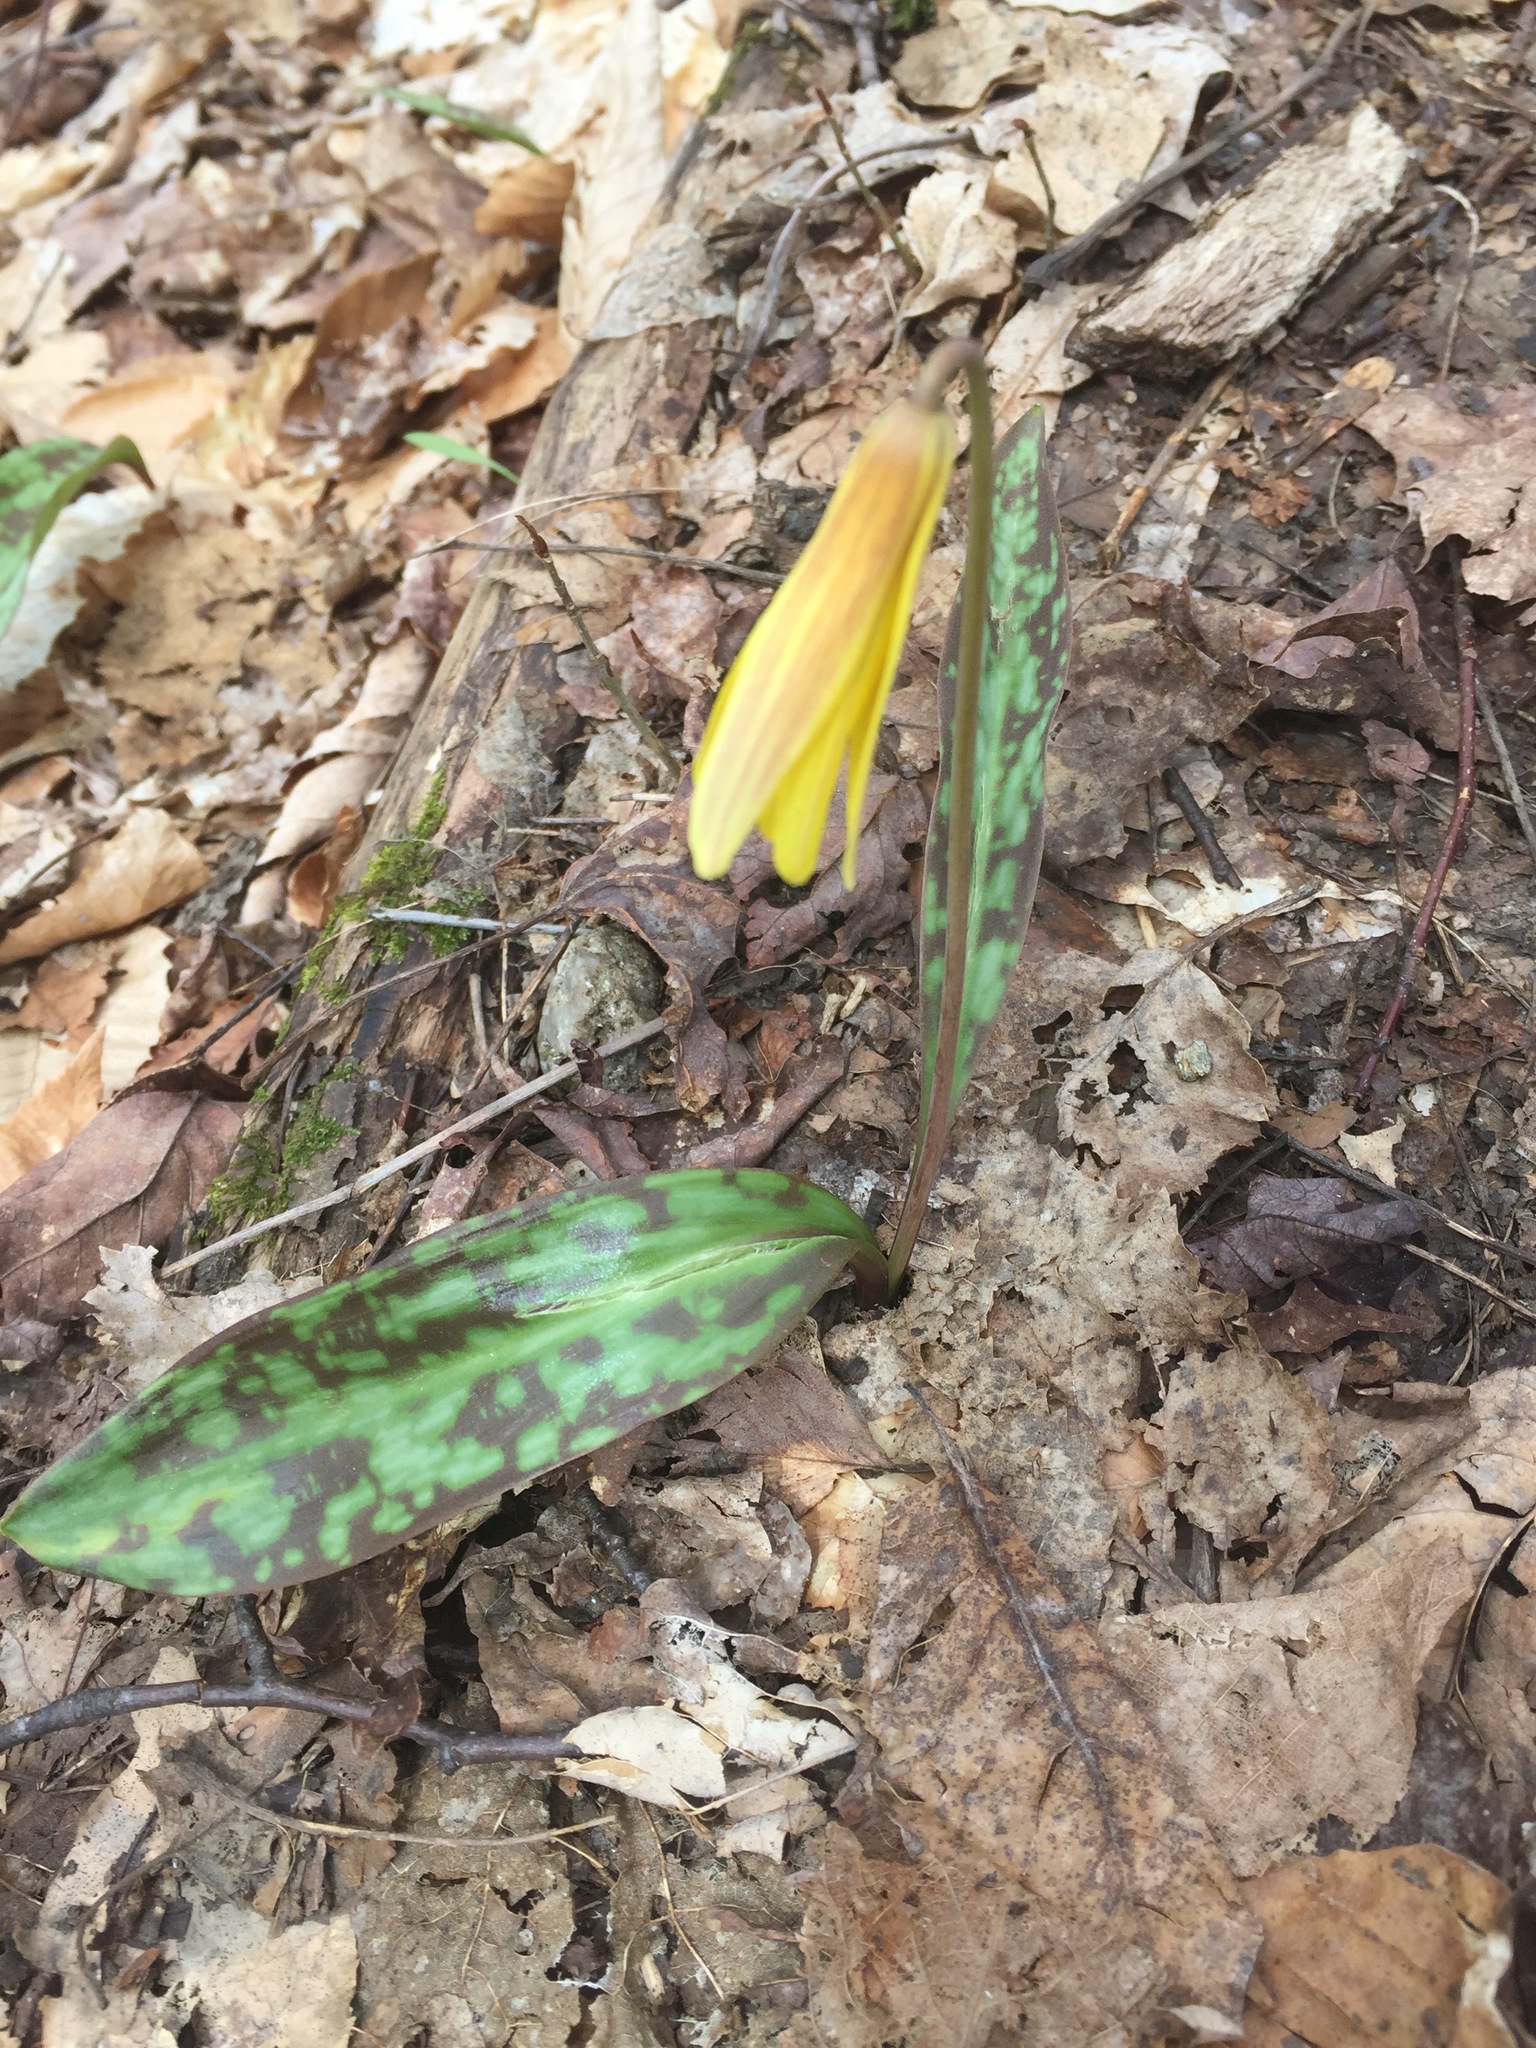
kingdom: Plantae
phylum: Tracheophyta
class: Liliopsida
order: Liliales
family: Liliaceae
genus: Erythronium
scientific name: Erythronium americanum
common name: Yellow adder's-tongue
